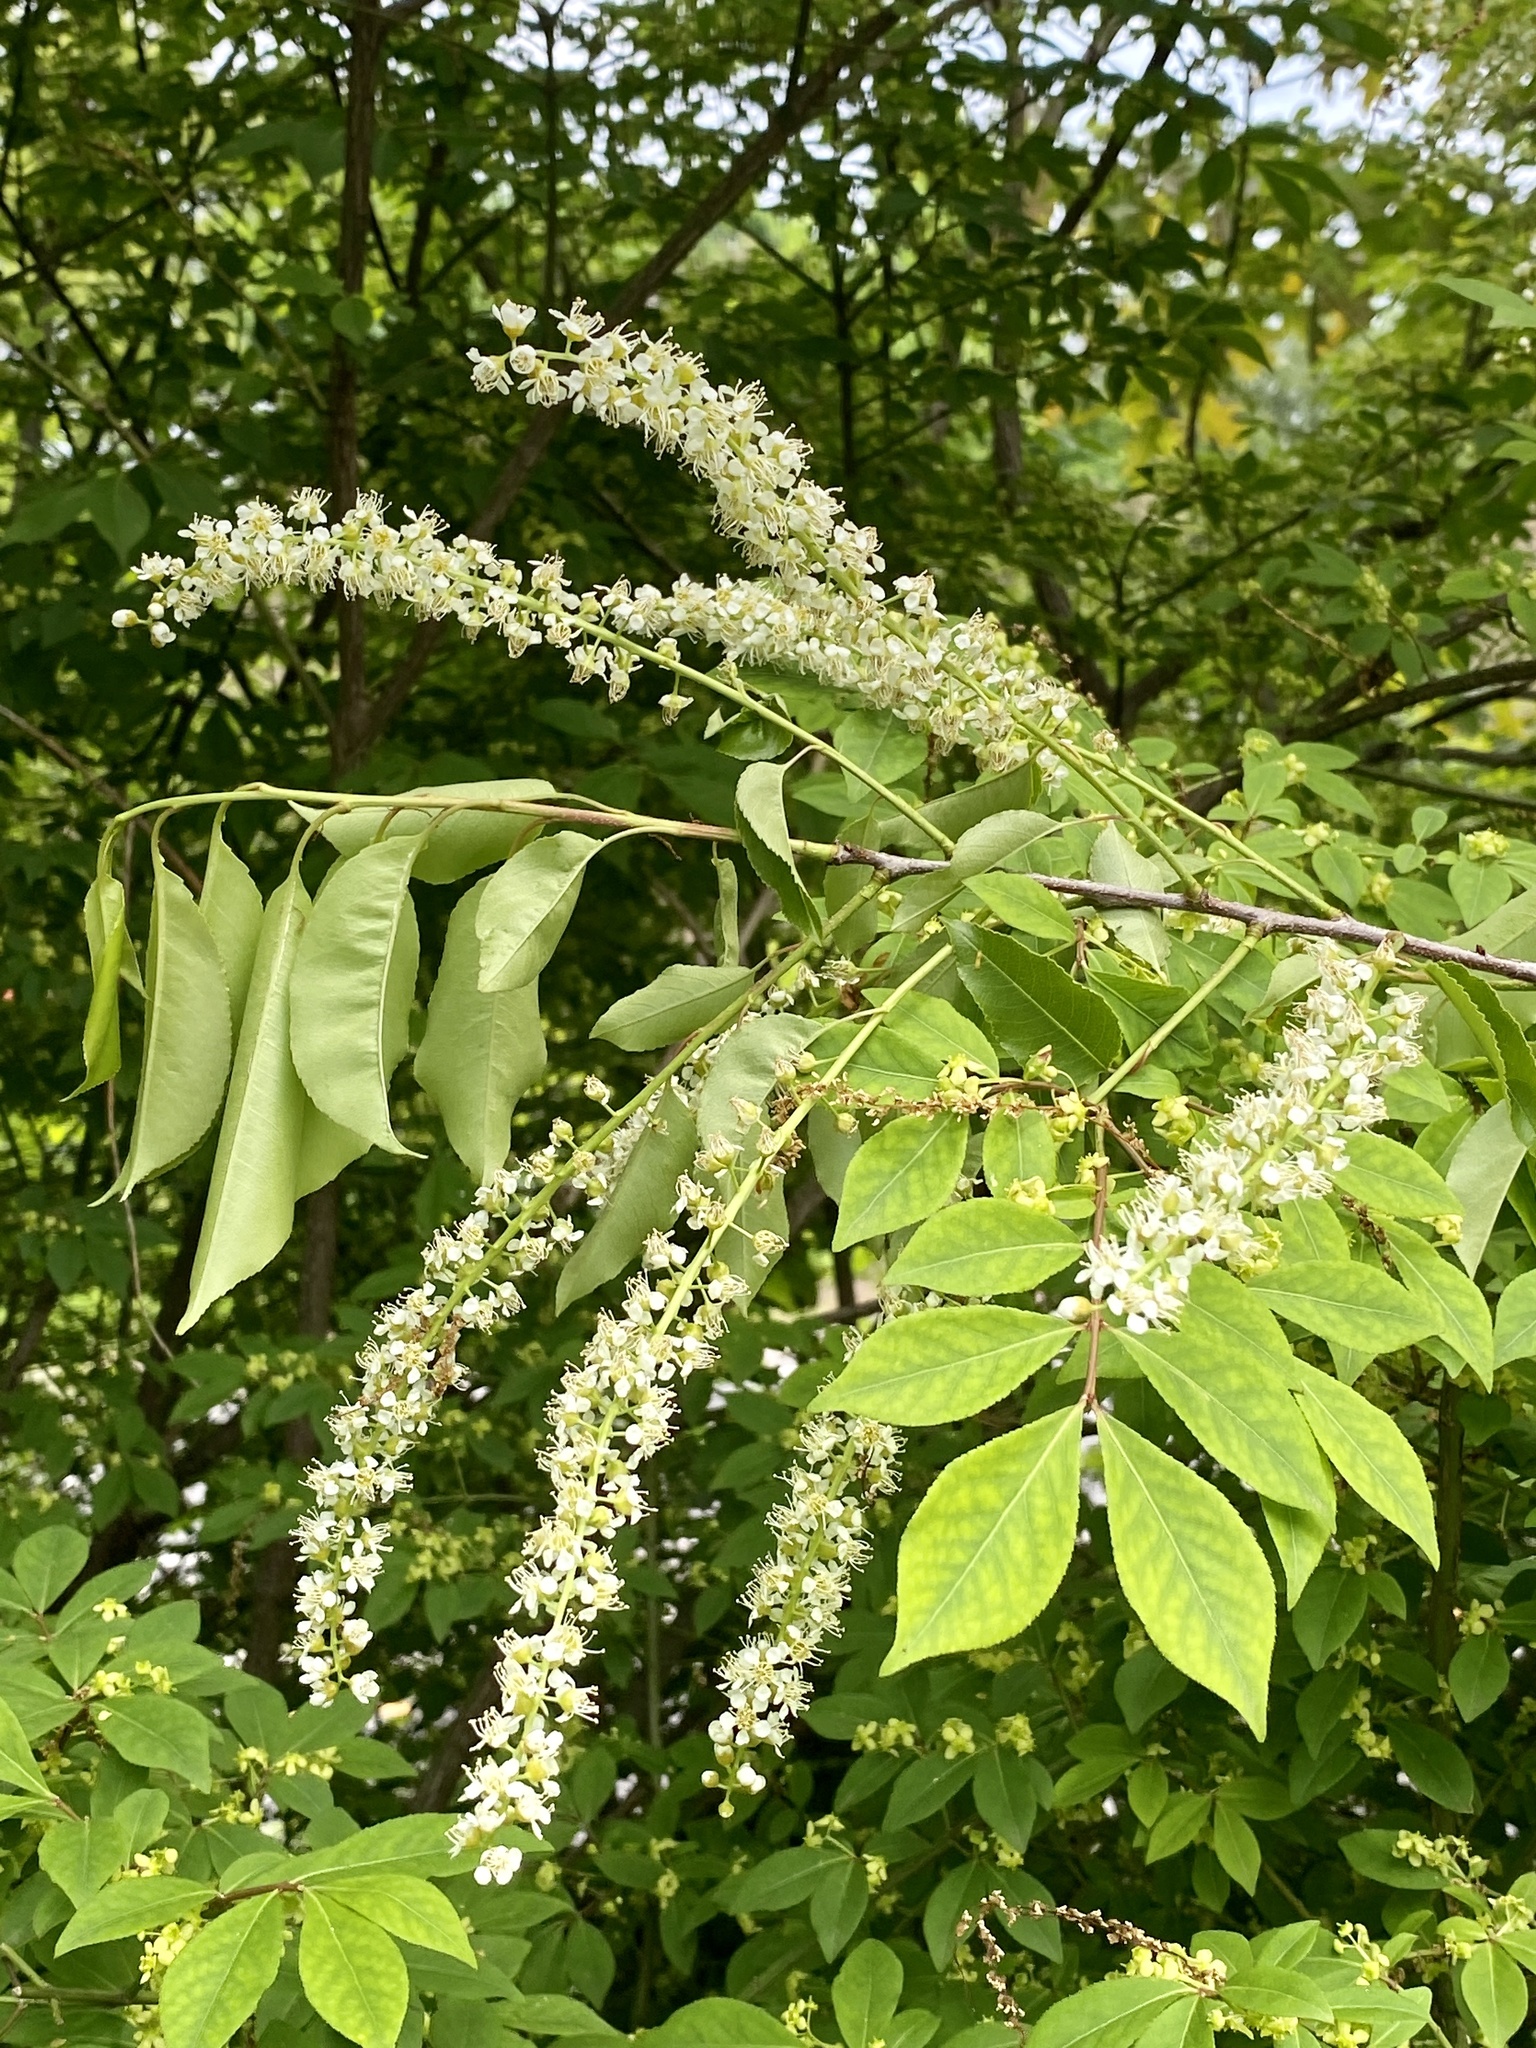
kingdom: Plantae
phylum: Tracheophyta
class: Magnoliopsida
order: Rosales
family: Rosaceae
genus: Prunus
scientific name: Prunus serotina
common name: Black cherry
